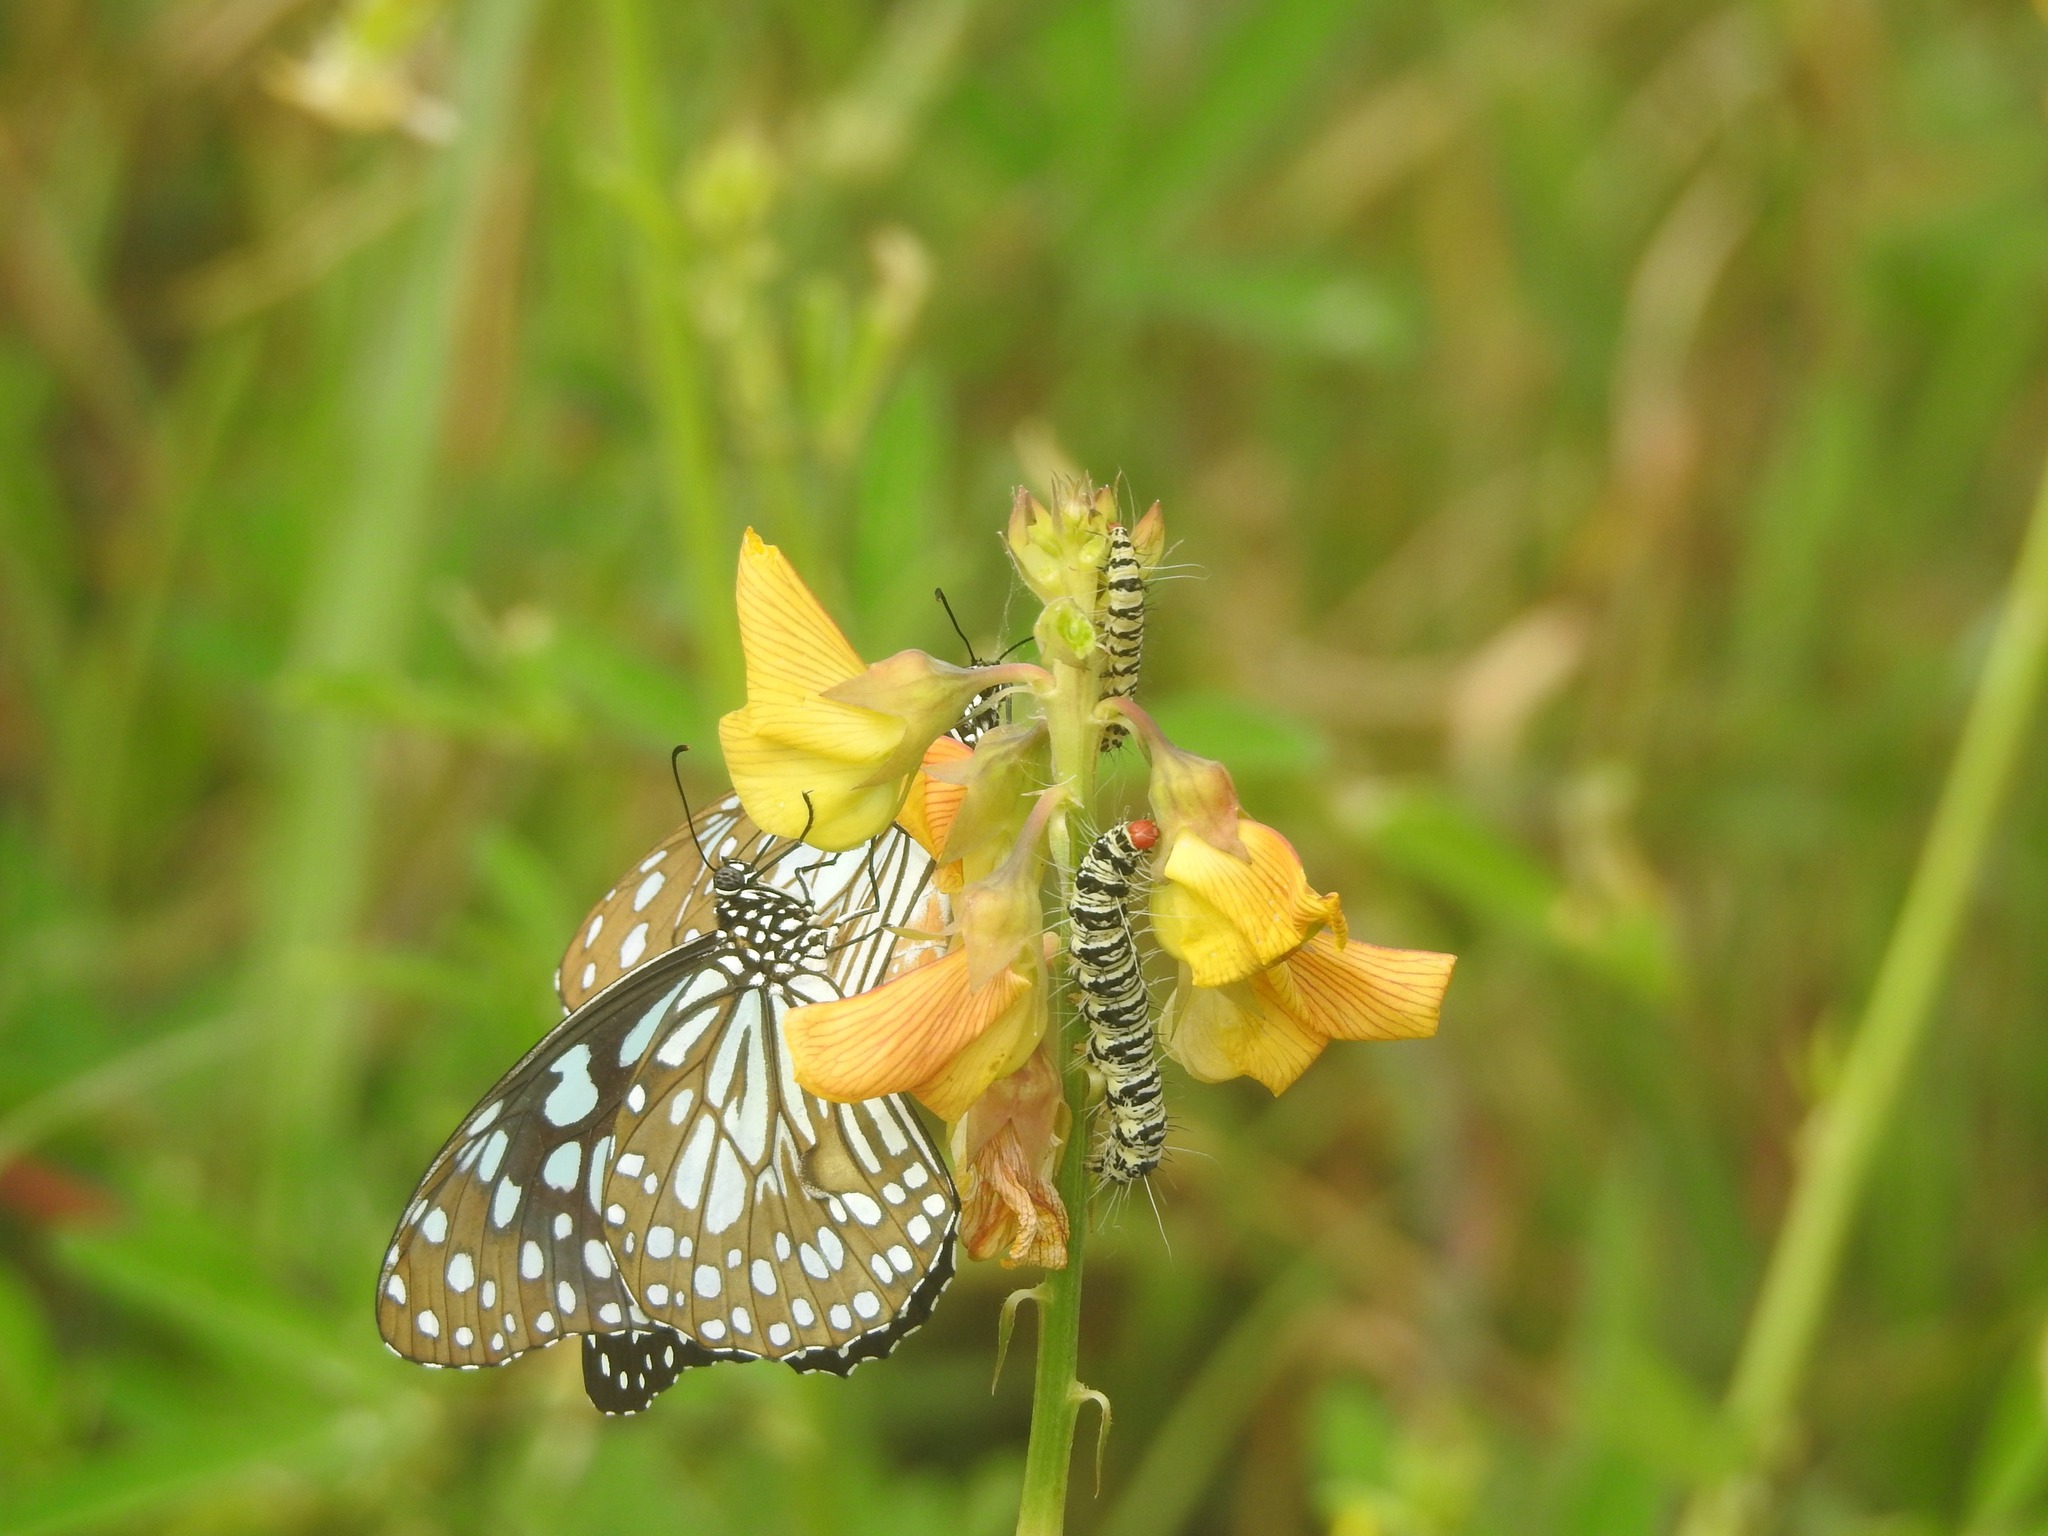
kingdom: Animalia
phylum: Arthropoda
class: Insecta
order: Lepidoptera
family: Erebidae
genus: Mangina
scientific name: Mangina argus
